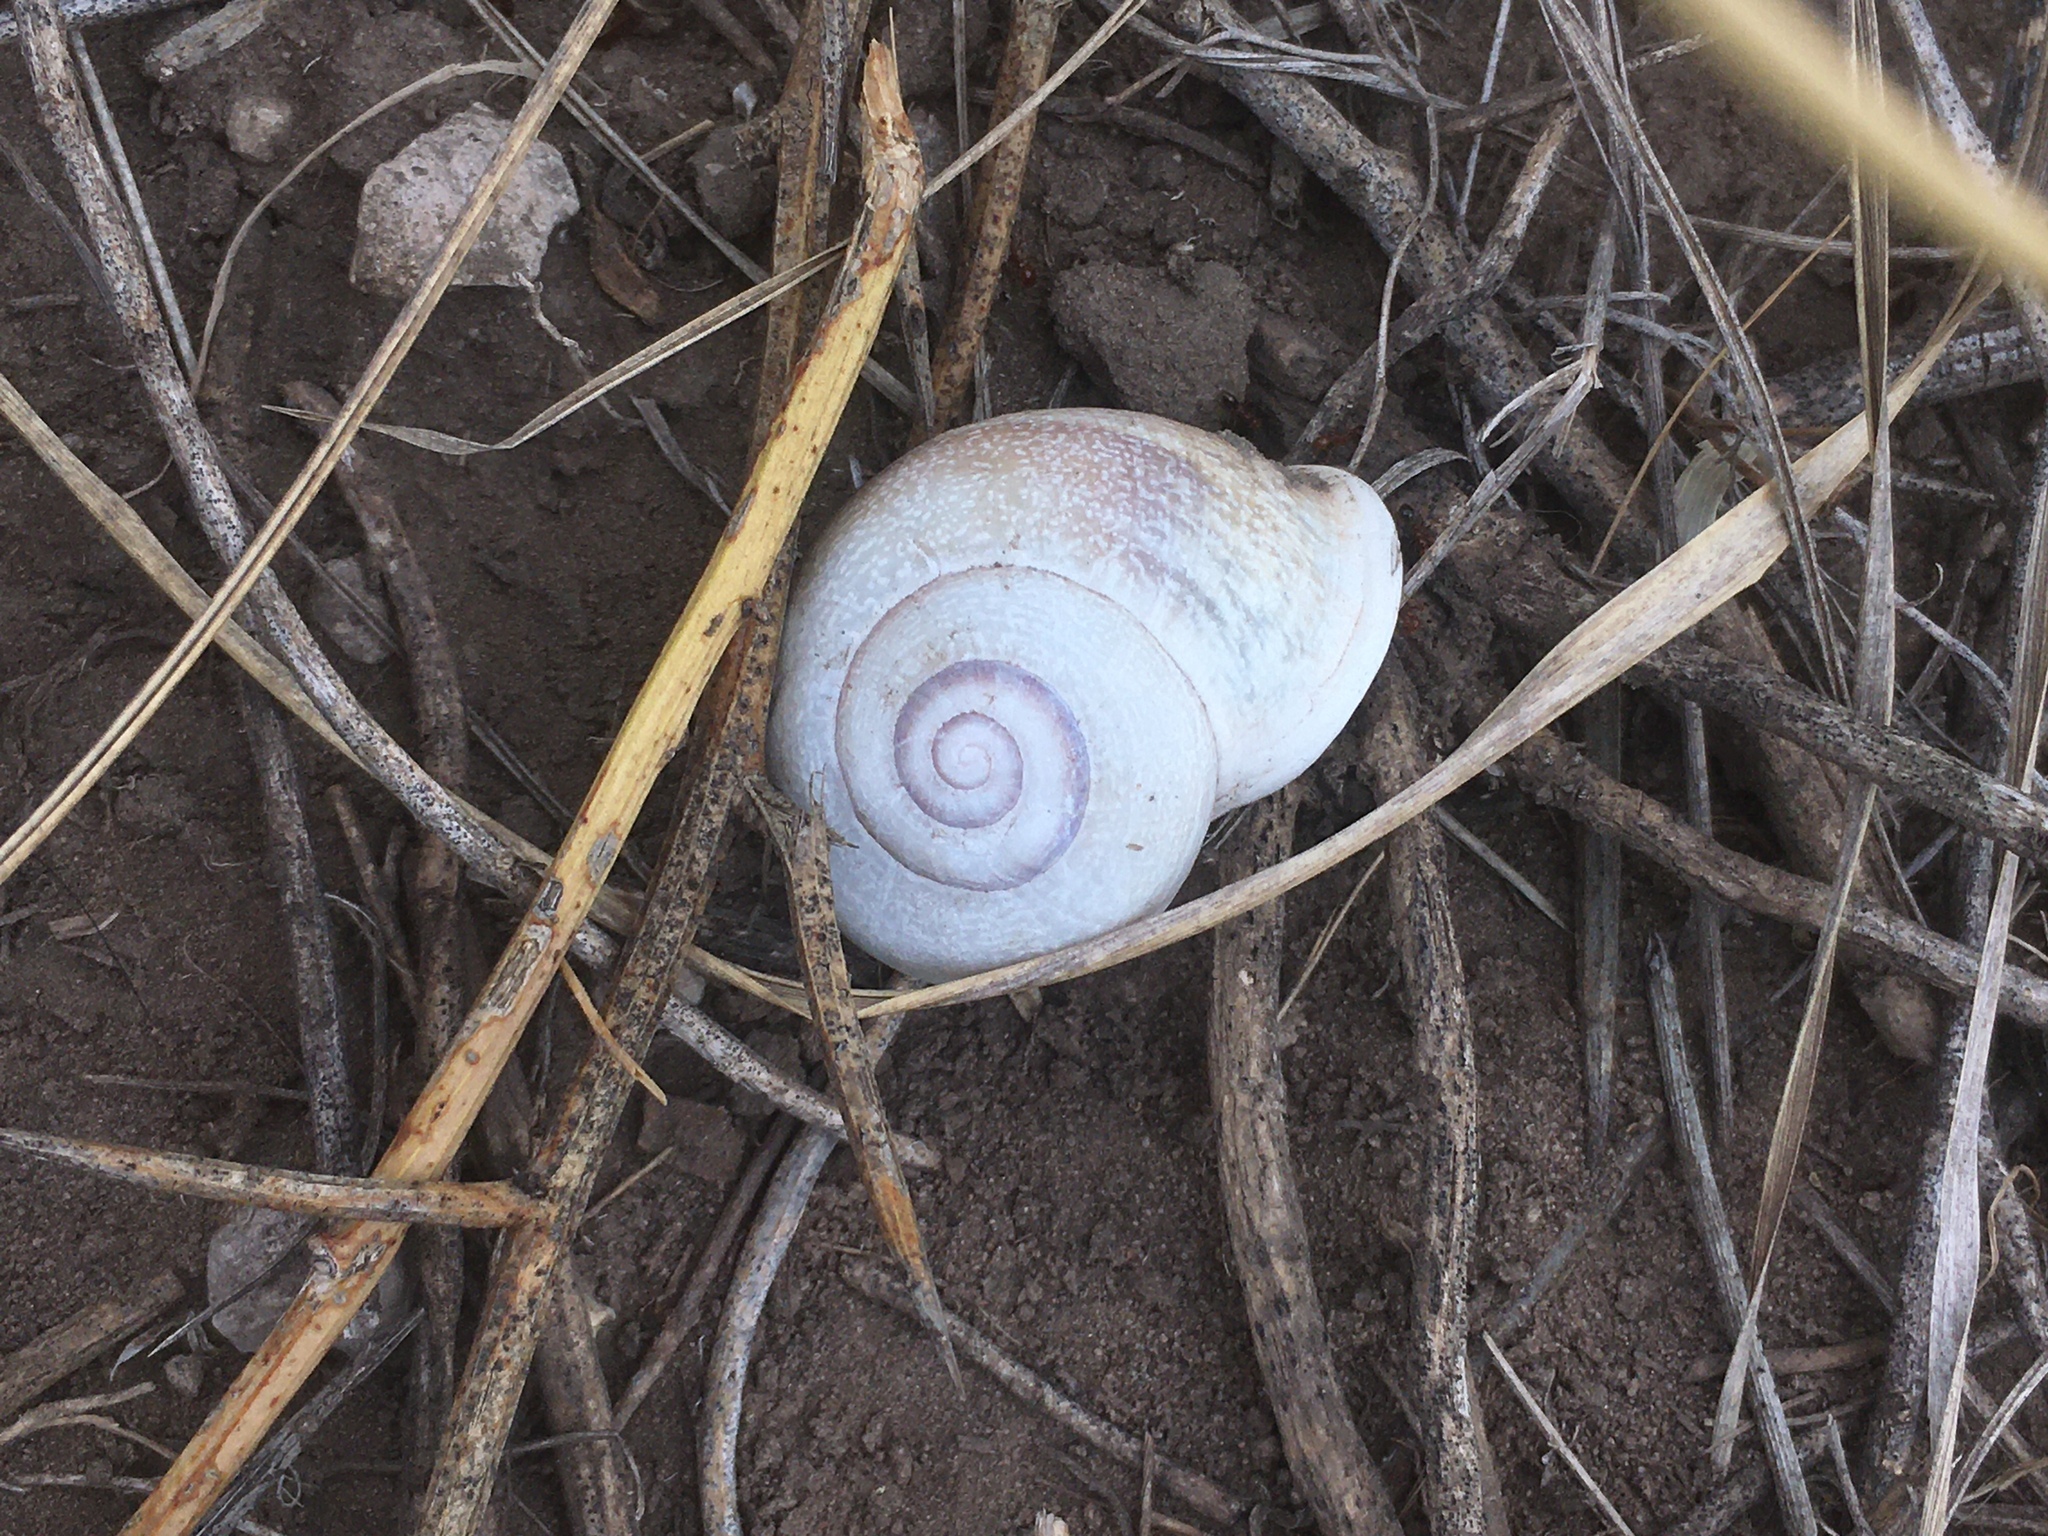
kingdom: Animalia
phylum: Mollusca
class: Gastropoda
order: Stylommatophora
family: Helicidae
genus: Otala
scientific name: Otala punctata
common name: Milk snail
